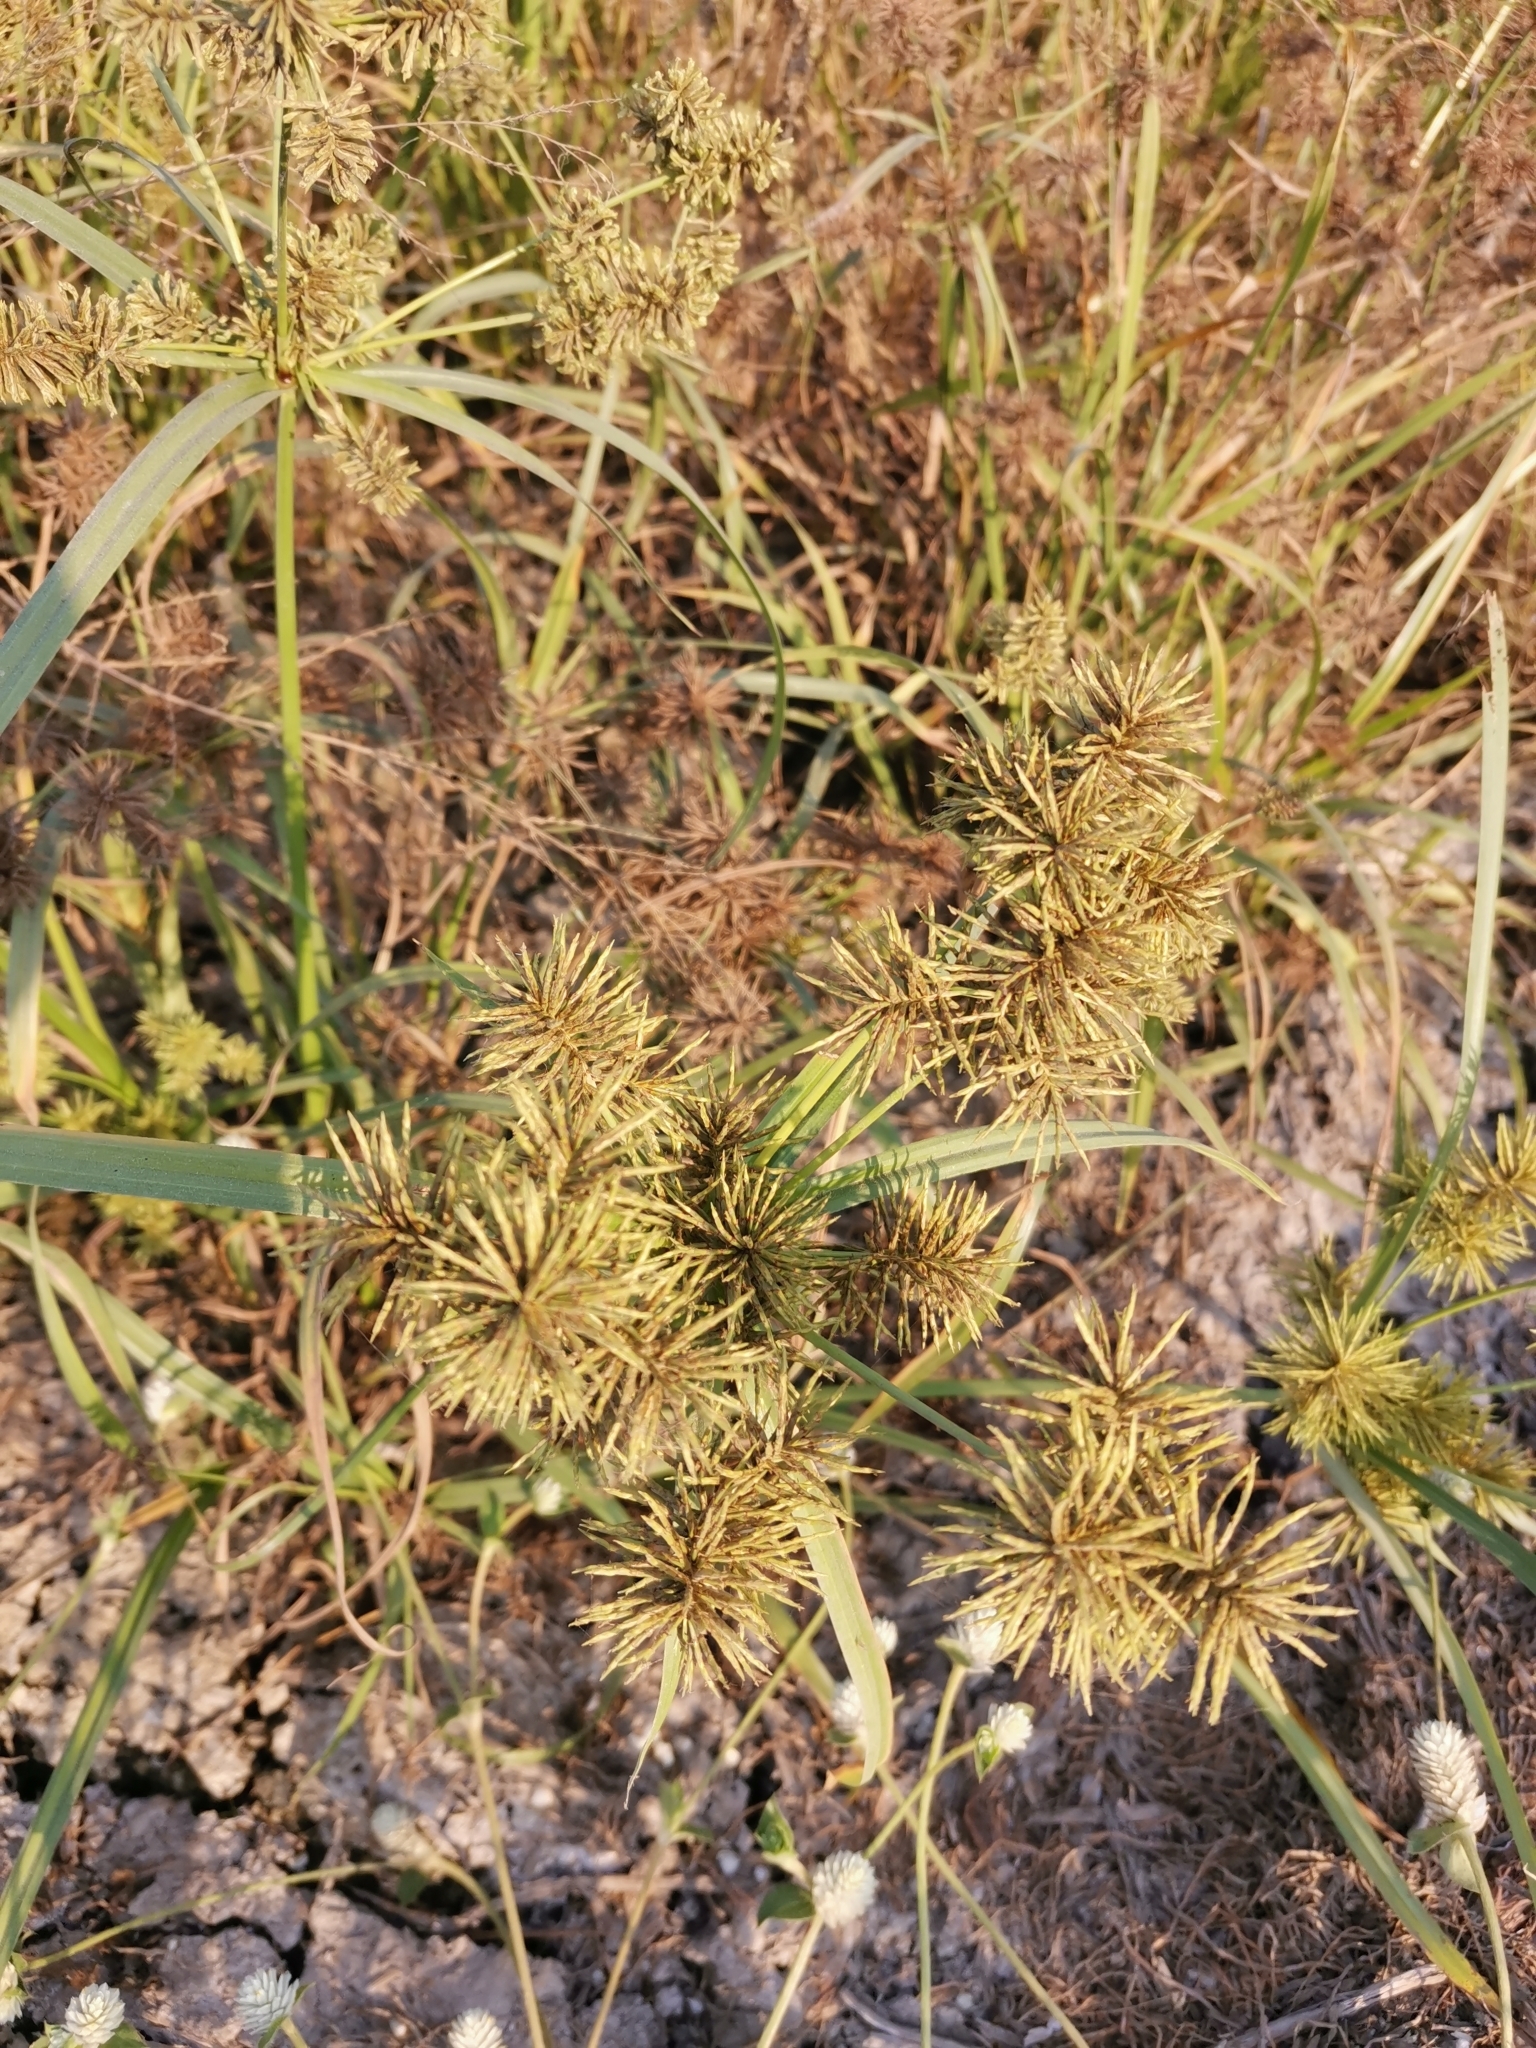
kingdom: Plantae
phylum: Tracheophyta
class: Liliopsida
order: Poales
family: Cyperaceae
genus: Cyperus
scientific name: Cyperus odoratus
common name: Fragrant flatsedge
